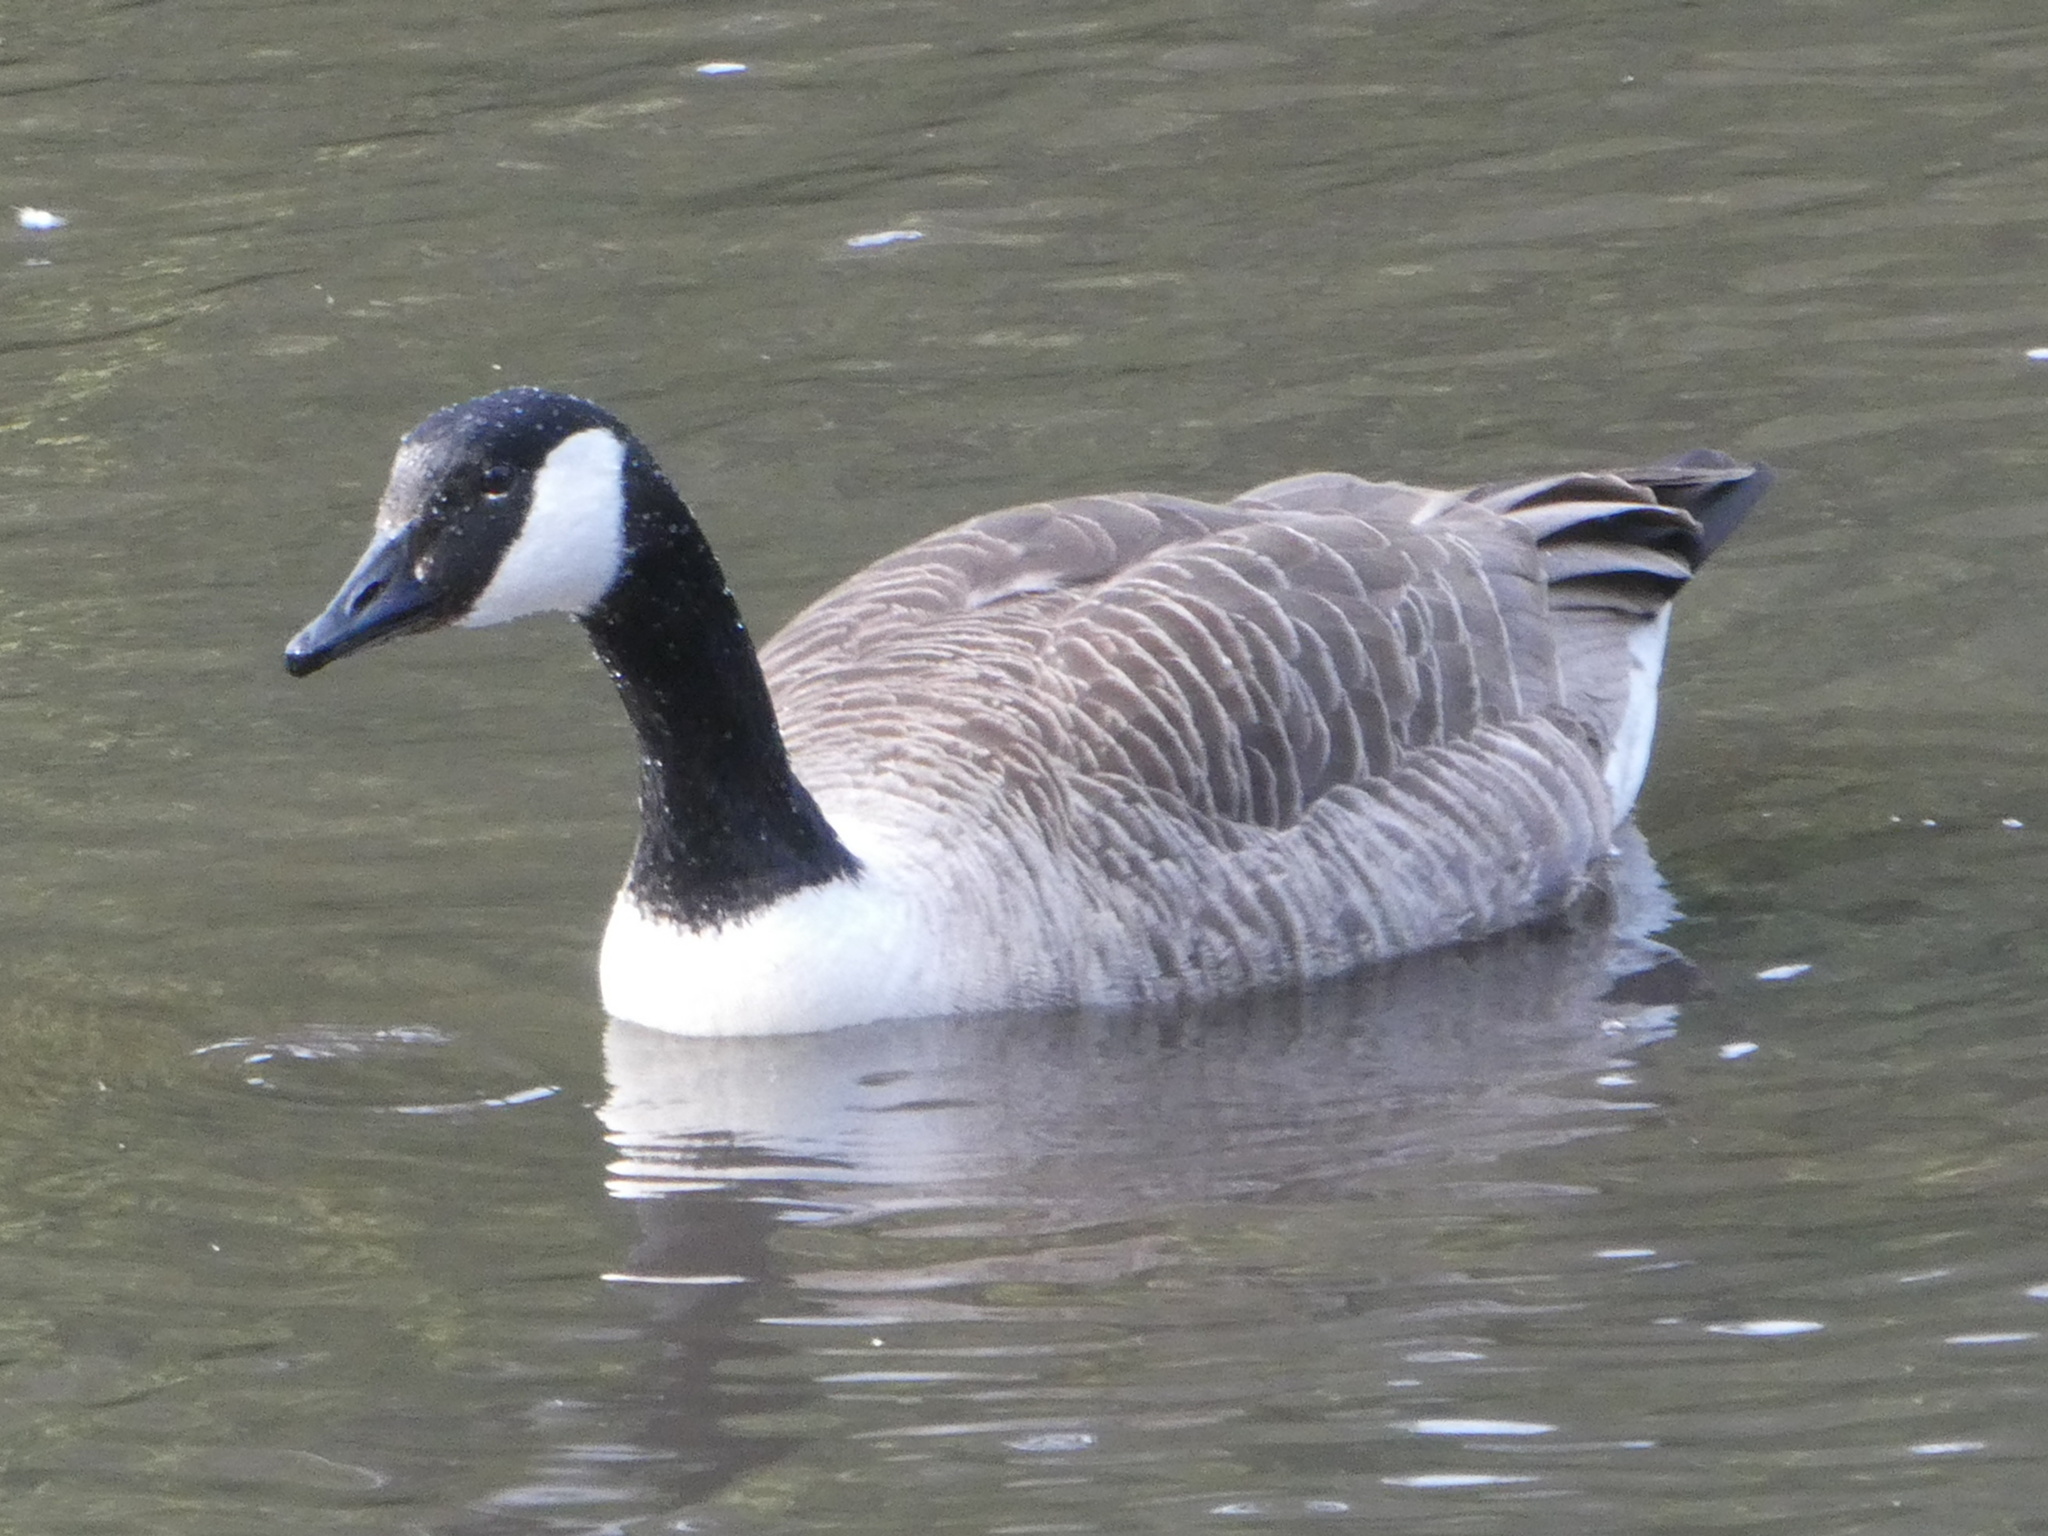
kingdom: Animalia
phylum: Chordata
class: Aves
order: Anseriformes
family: Anatidae
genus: Branta
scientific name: Branta canadensis
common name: Canada goose
